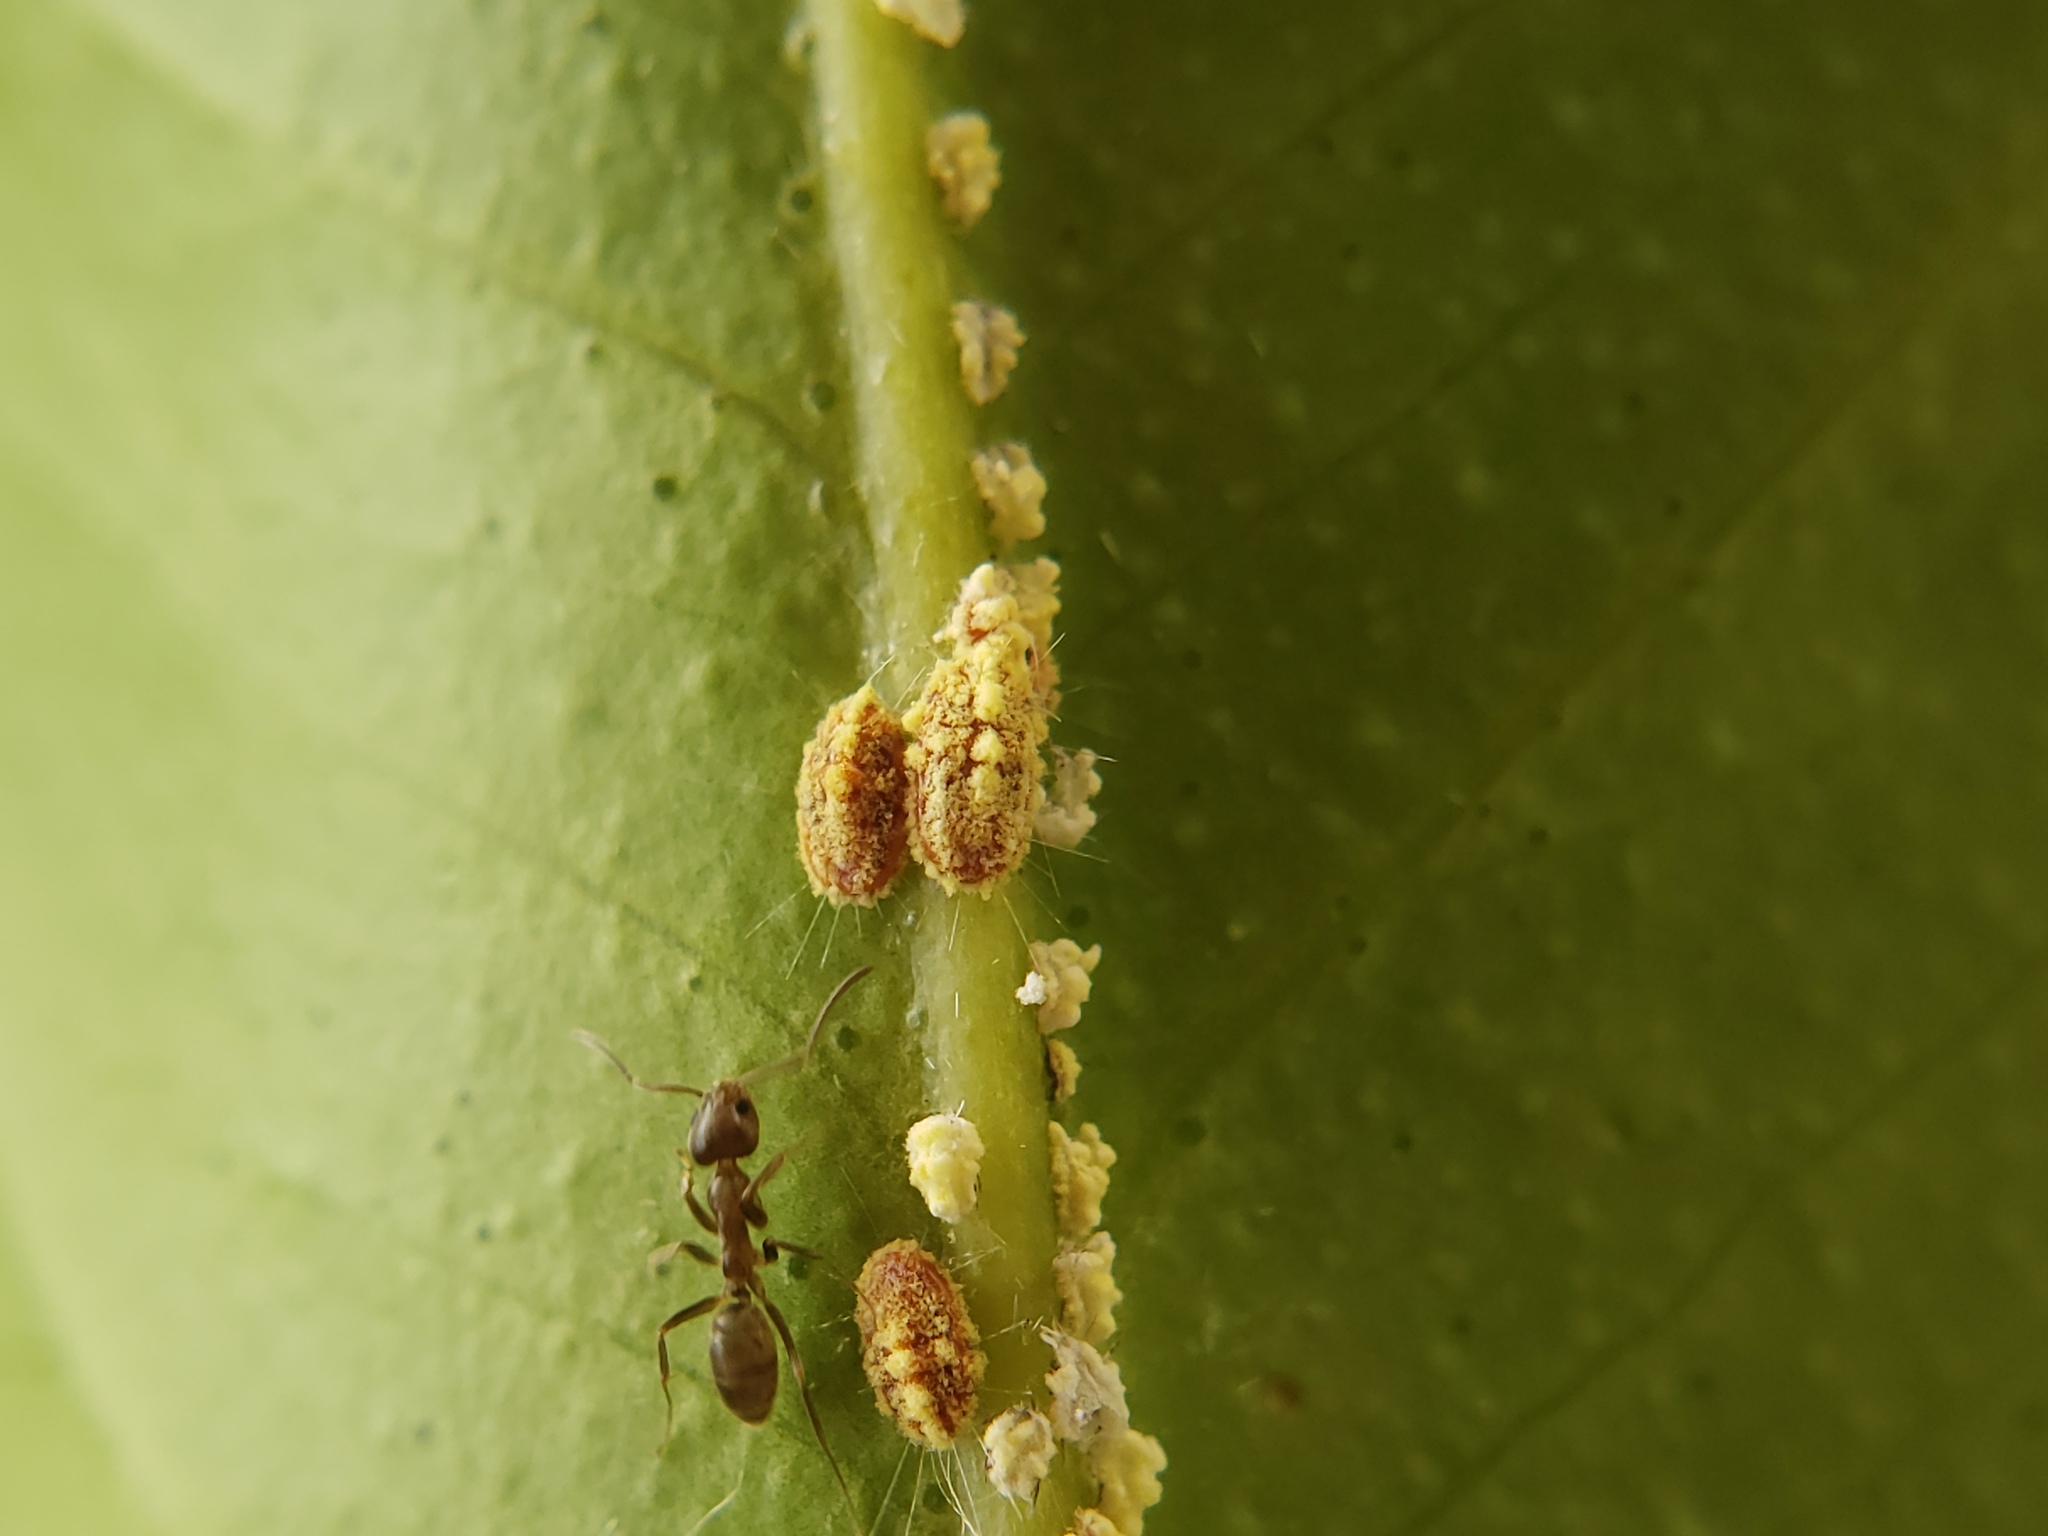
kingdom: Animalia
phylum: Arthropoda
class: Insecta
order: Hemiptera
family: Margarodidae
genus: Icerya
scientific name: Icerya purchasi
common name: Cottony cushion scale
